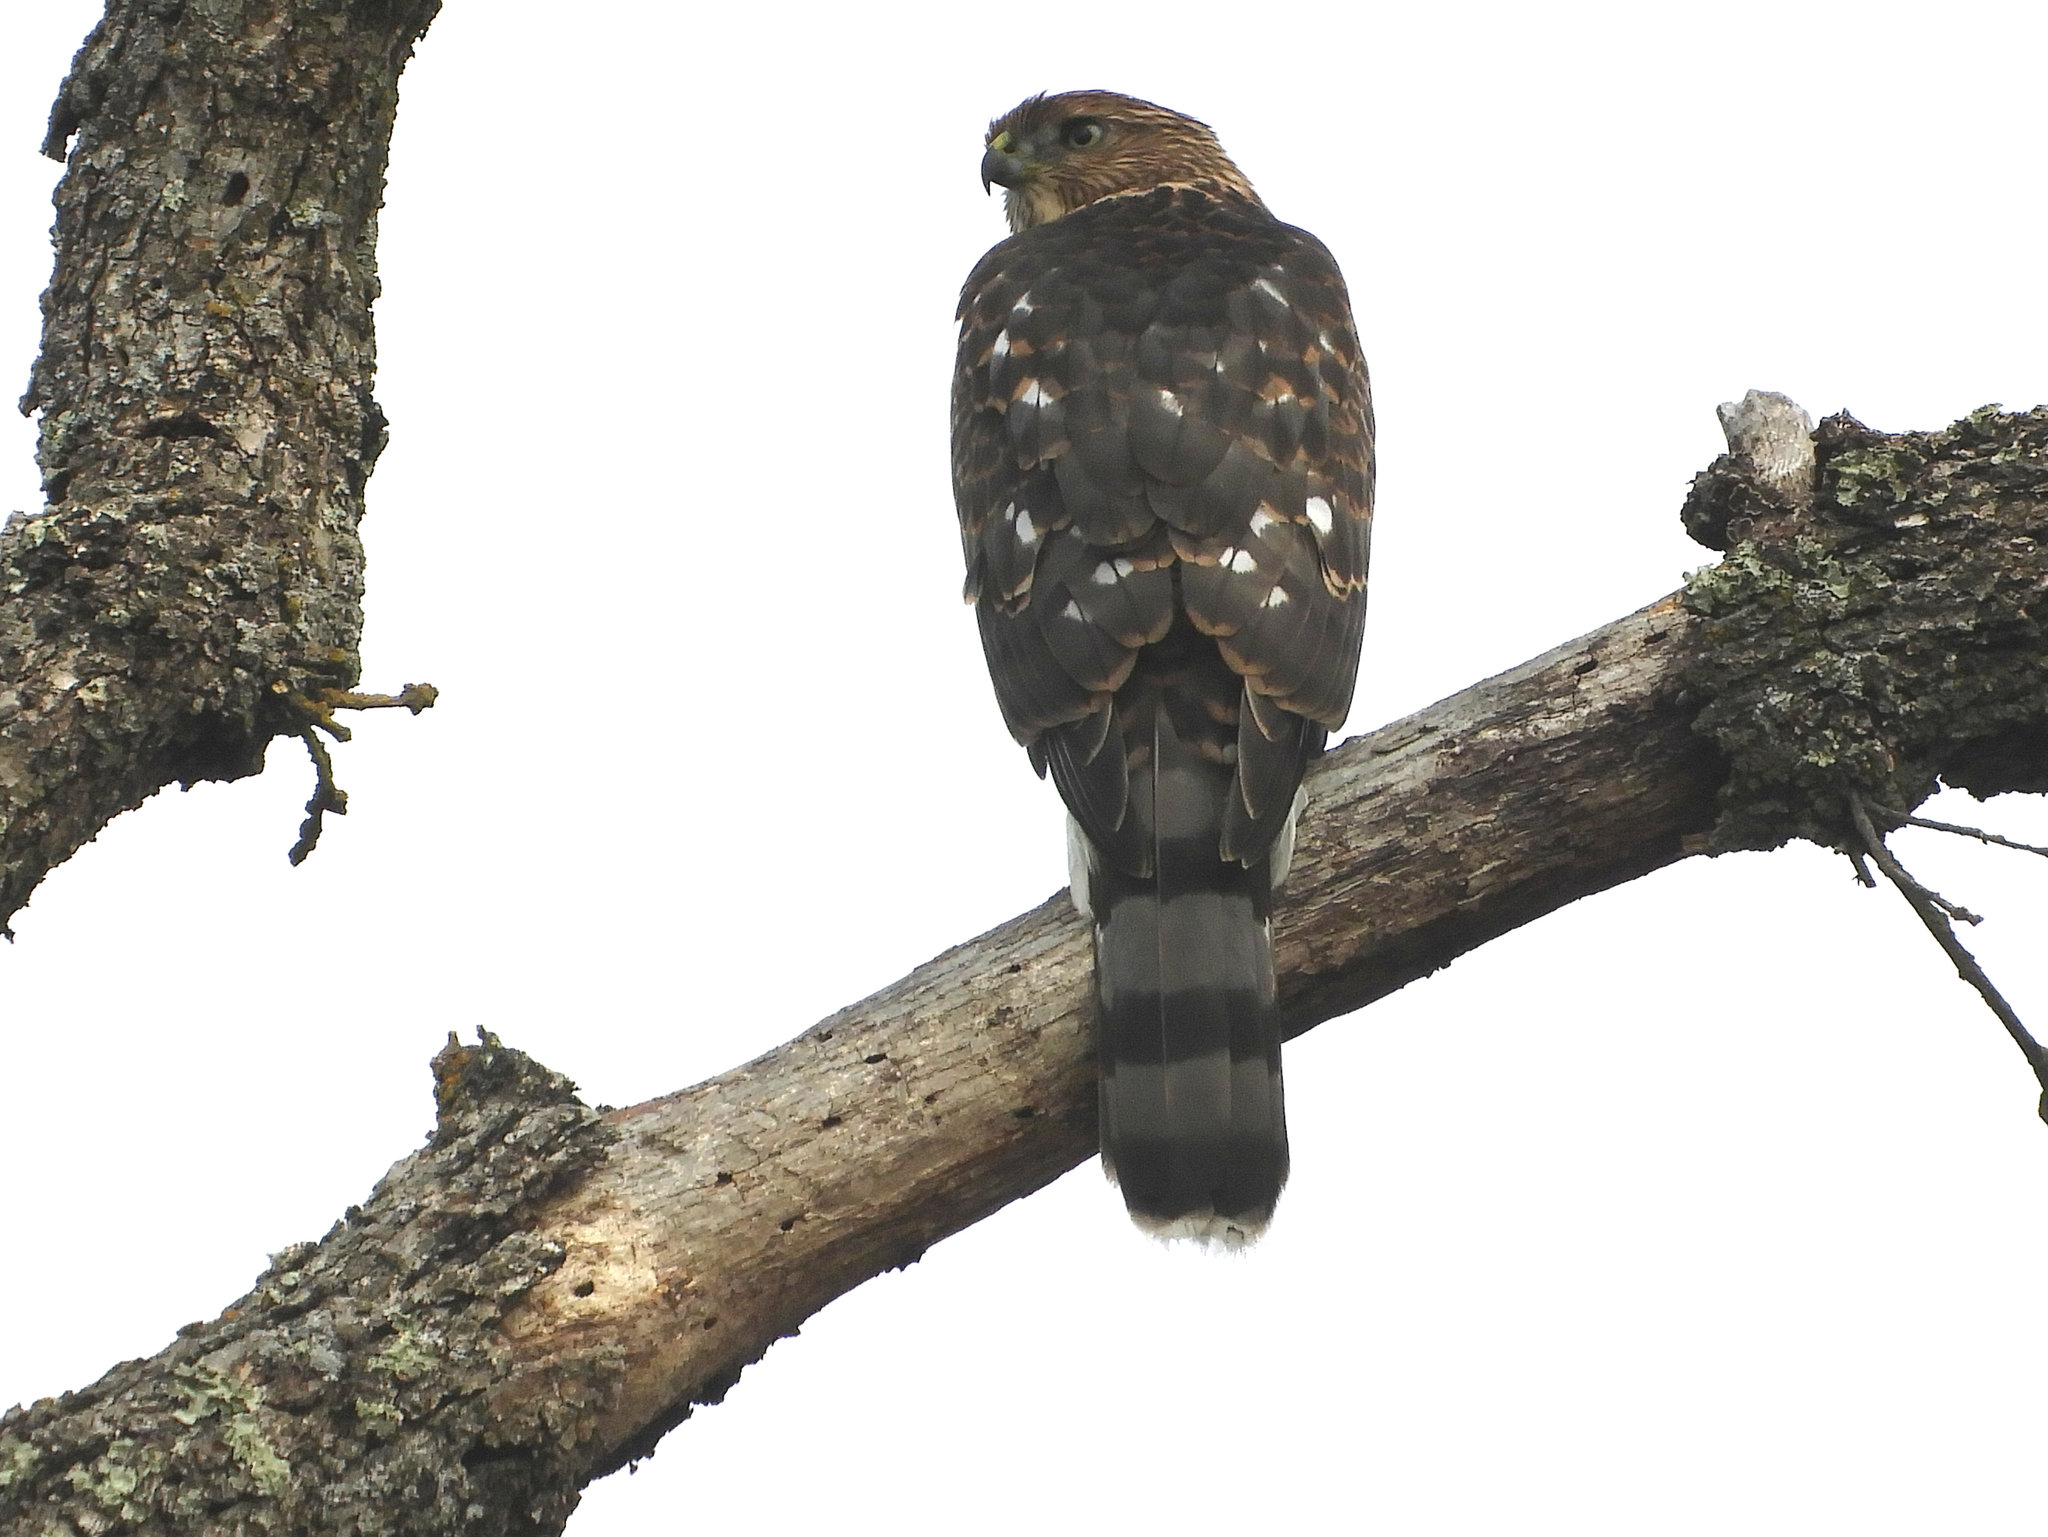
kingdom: Animalia
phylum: Chordata
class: Aves
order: Accipitriformes
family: Accipitridae
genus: Accipiter
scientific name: Accipiter cooperii
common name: Cooper's hawk
